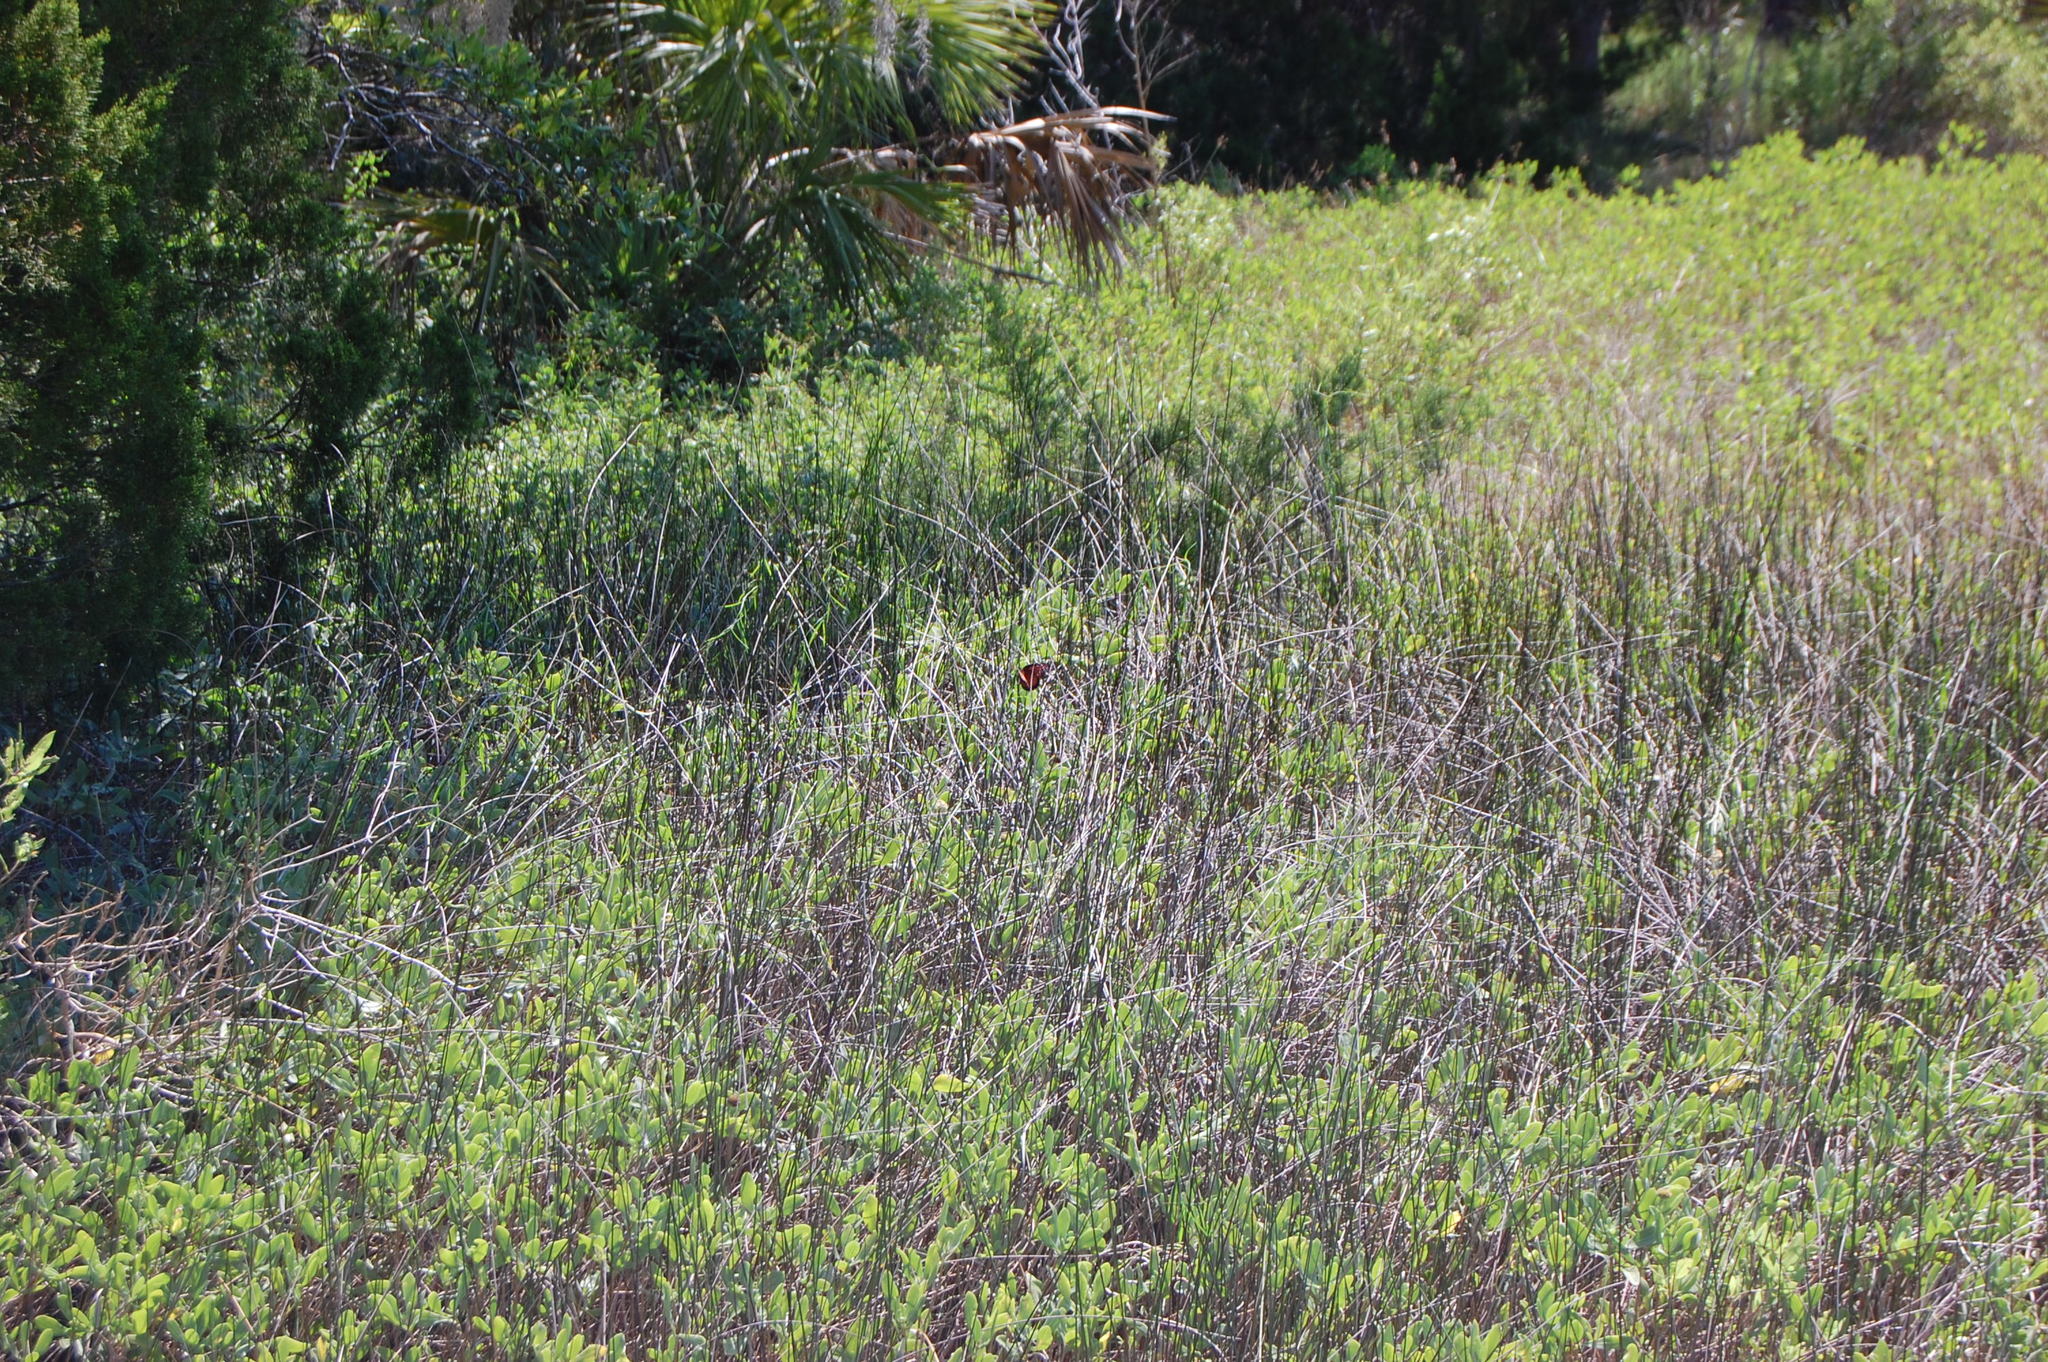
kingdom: Animalia
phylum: Arthropoda
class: Insecta
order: Lepidoptera
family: Nymphalidae
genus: Danaus
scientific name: Danaus plexippus
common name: Monarch
